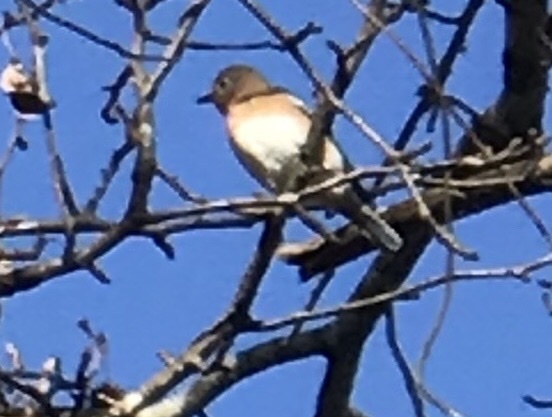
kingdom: Animalia
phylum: Chordata
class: Aves
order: Passeriformes
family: Turdidae
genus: Sialia
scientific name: Sialia sialis
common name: Eastern bluebird
